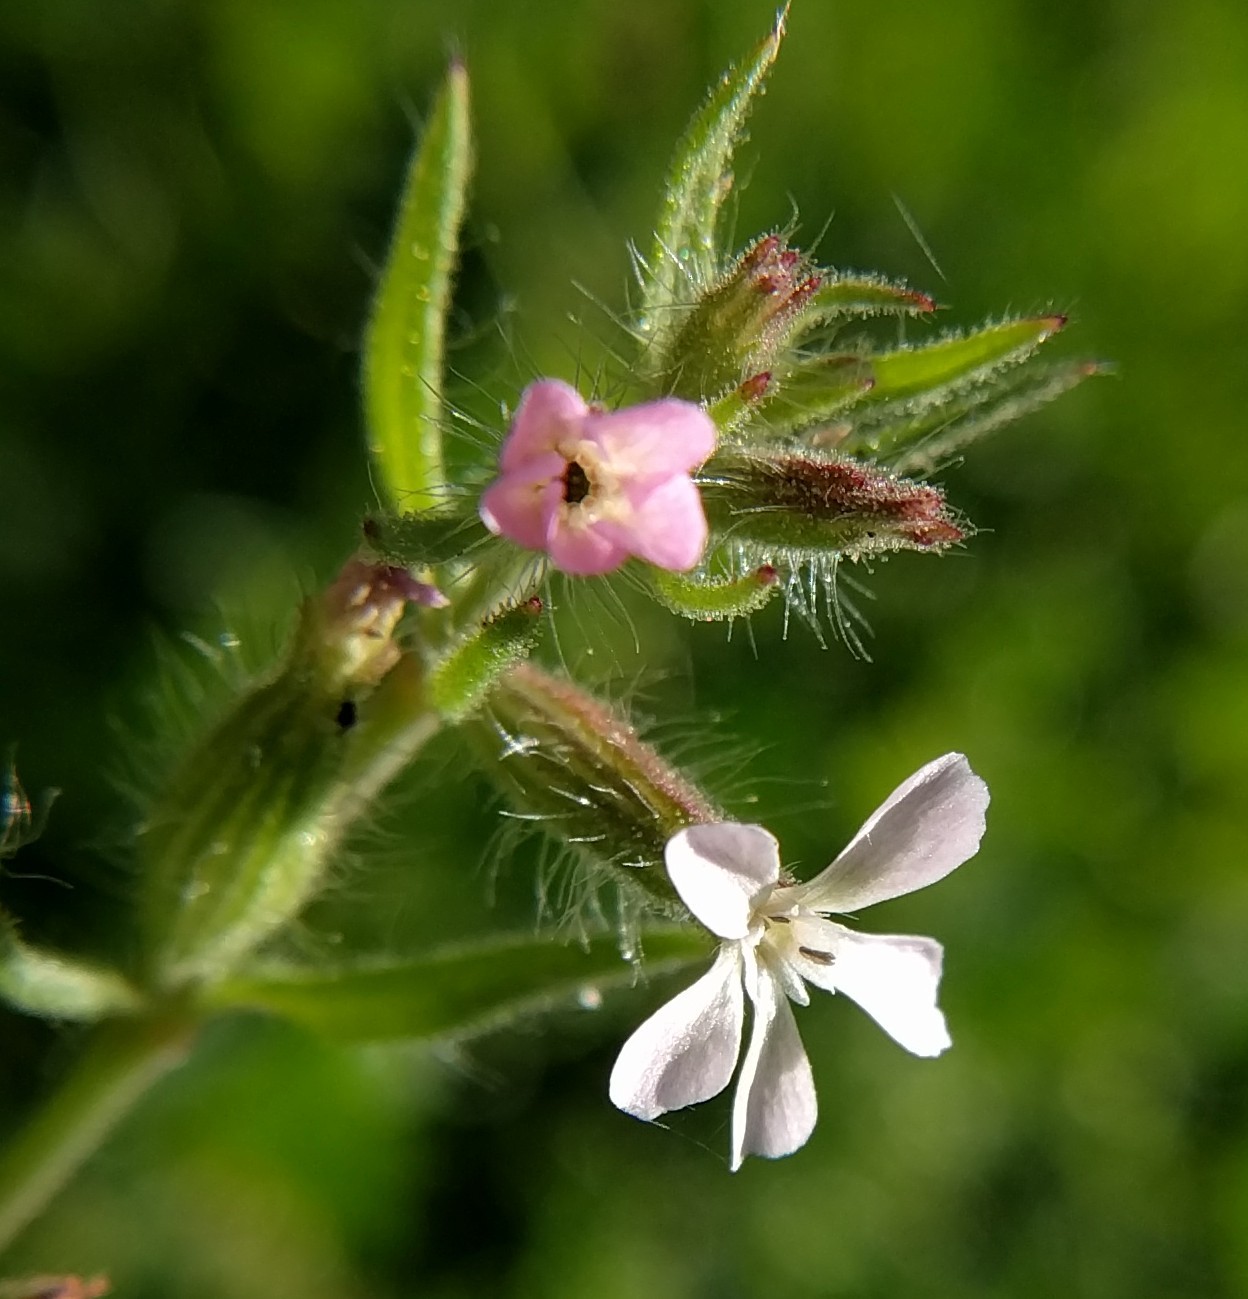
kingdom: Plantae
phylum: Tracheophyta
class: Magnoliopsida
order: Caryophyllales
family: Caryophyllaceae
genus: Silene
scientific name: Silene gallica
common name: Small-flowered catchfly
